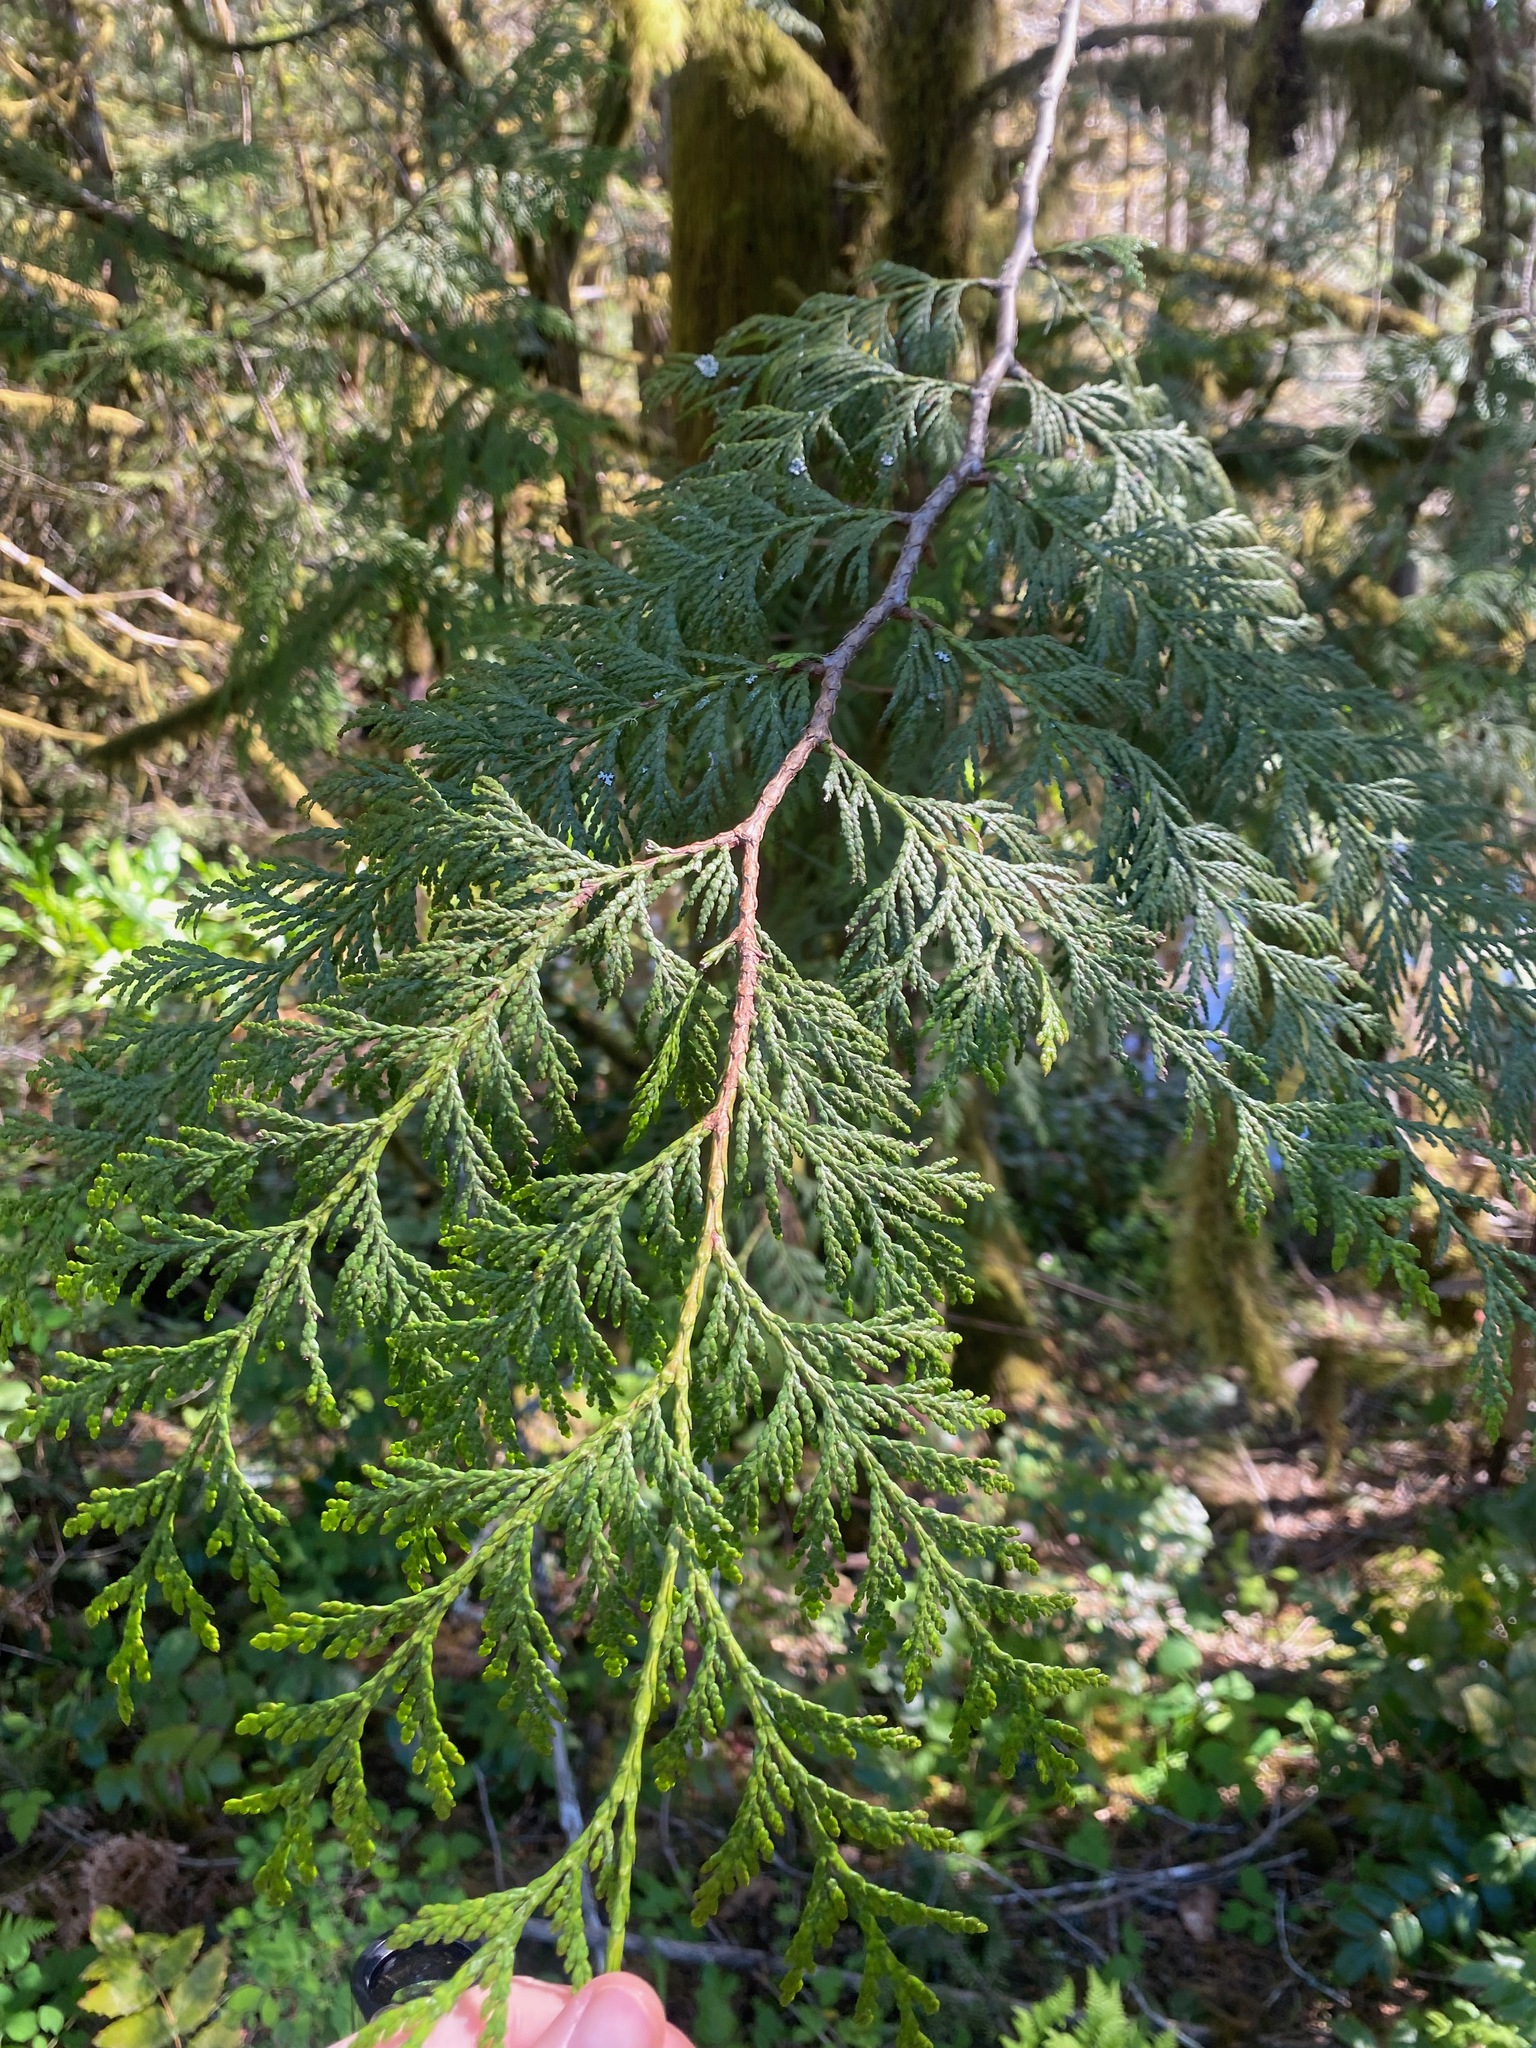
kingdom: Plantae
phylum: Tracheophyta
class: Pinopsida
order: Pinales
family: Cupressaceae
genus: Thuja
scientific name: Thuja plicata
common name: Western red-cedar
